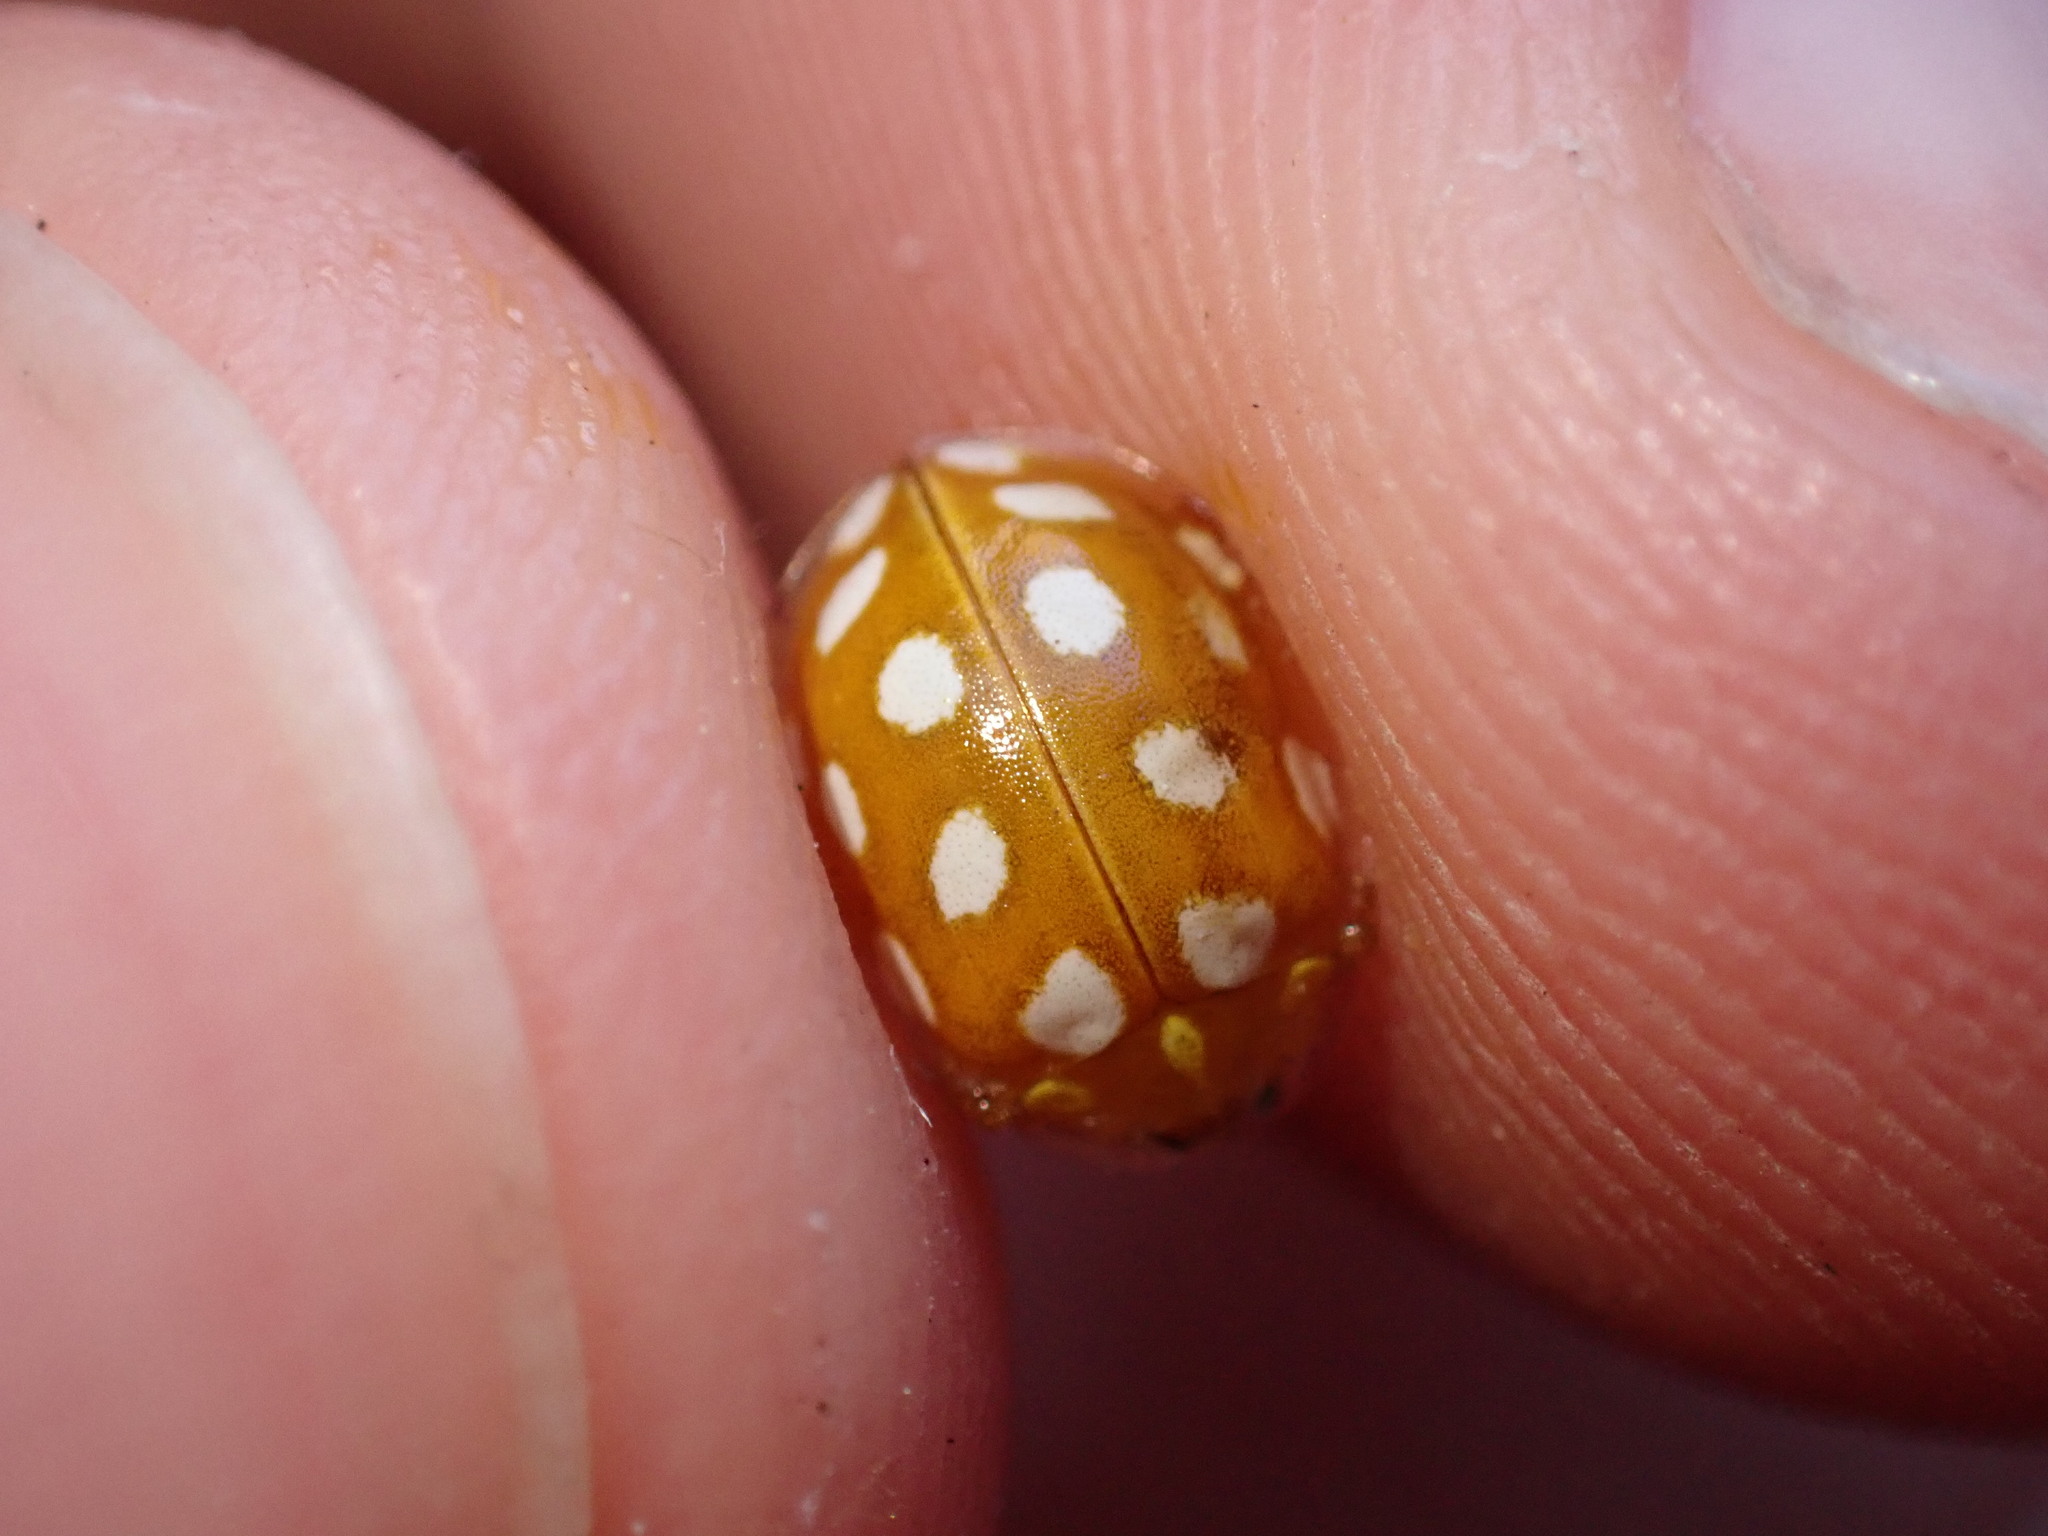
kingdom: Animalia
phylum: Arthropoda
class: Insecta
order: Coleoptera
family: Coccinellidae
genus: Halyzia
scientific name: Halyzia sedecimguttata
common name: Orange ladybird
